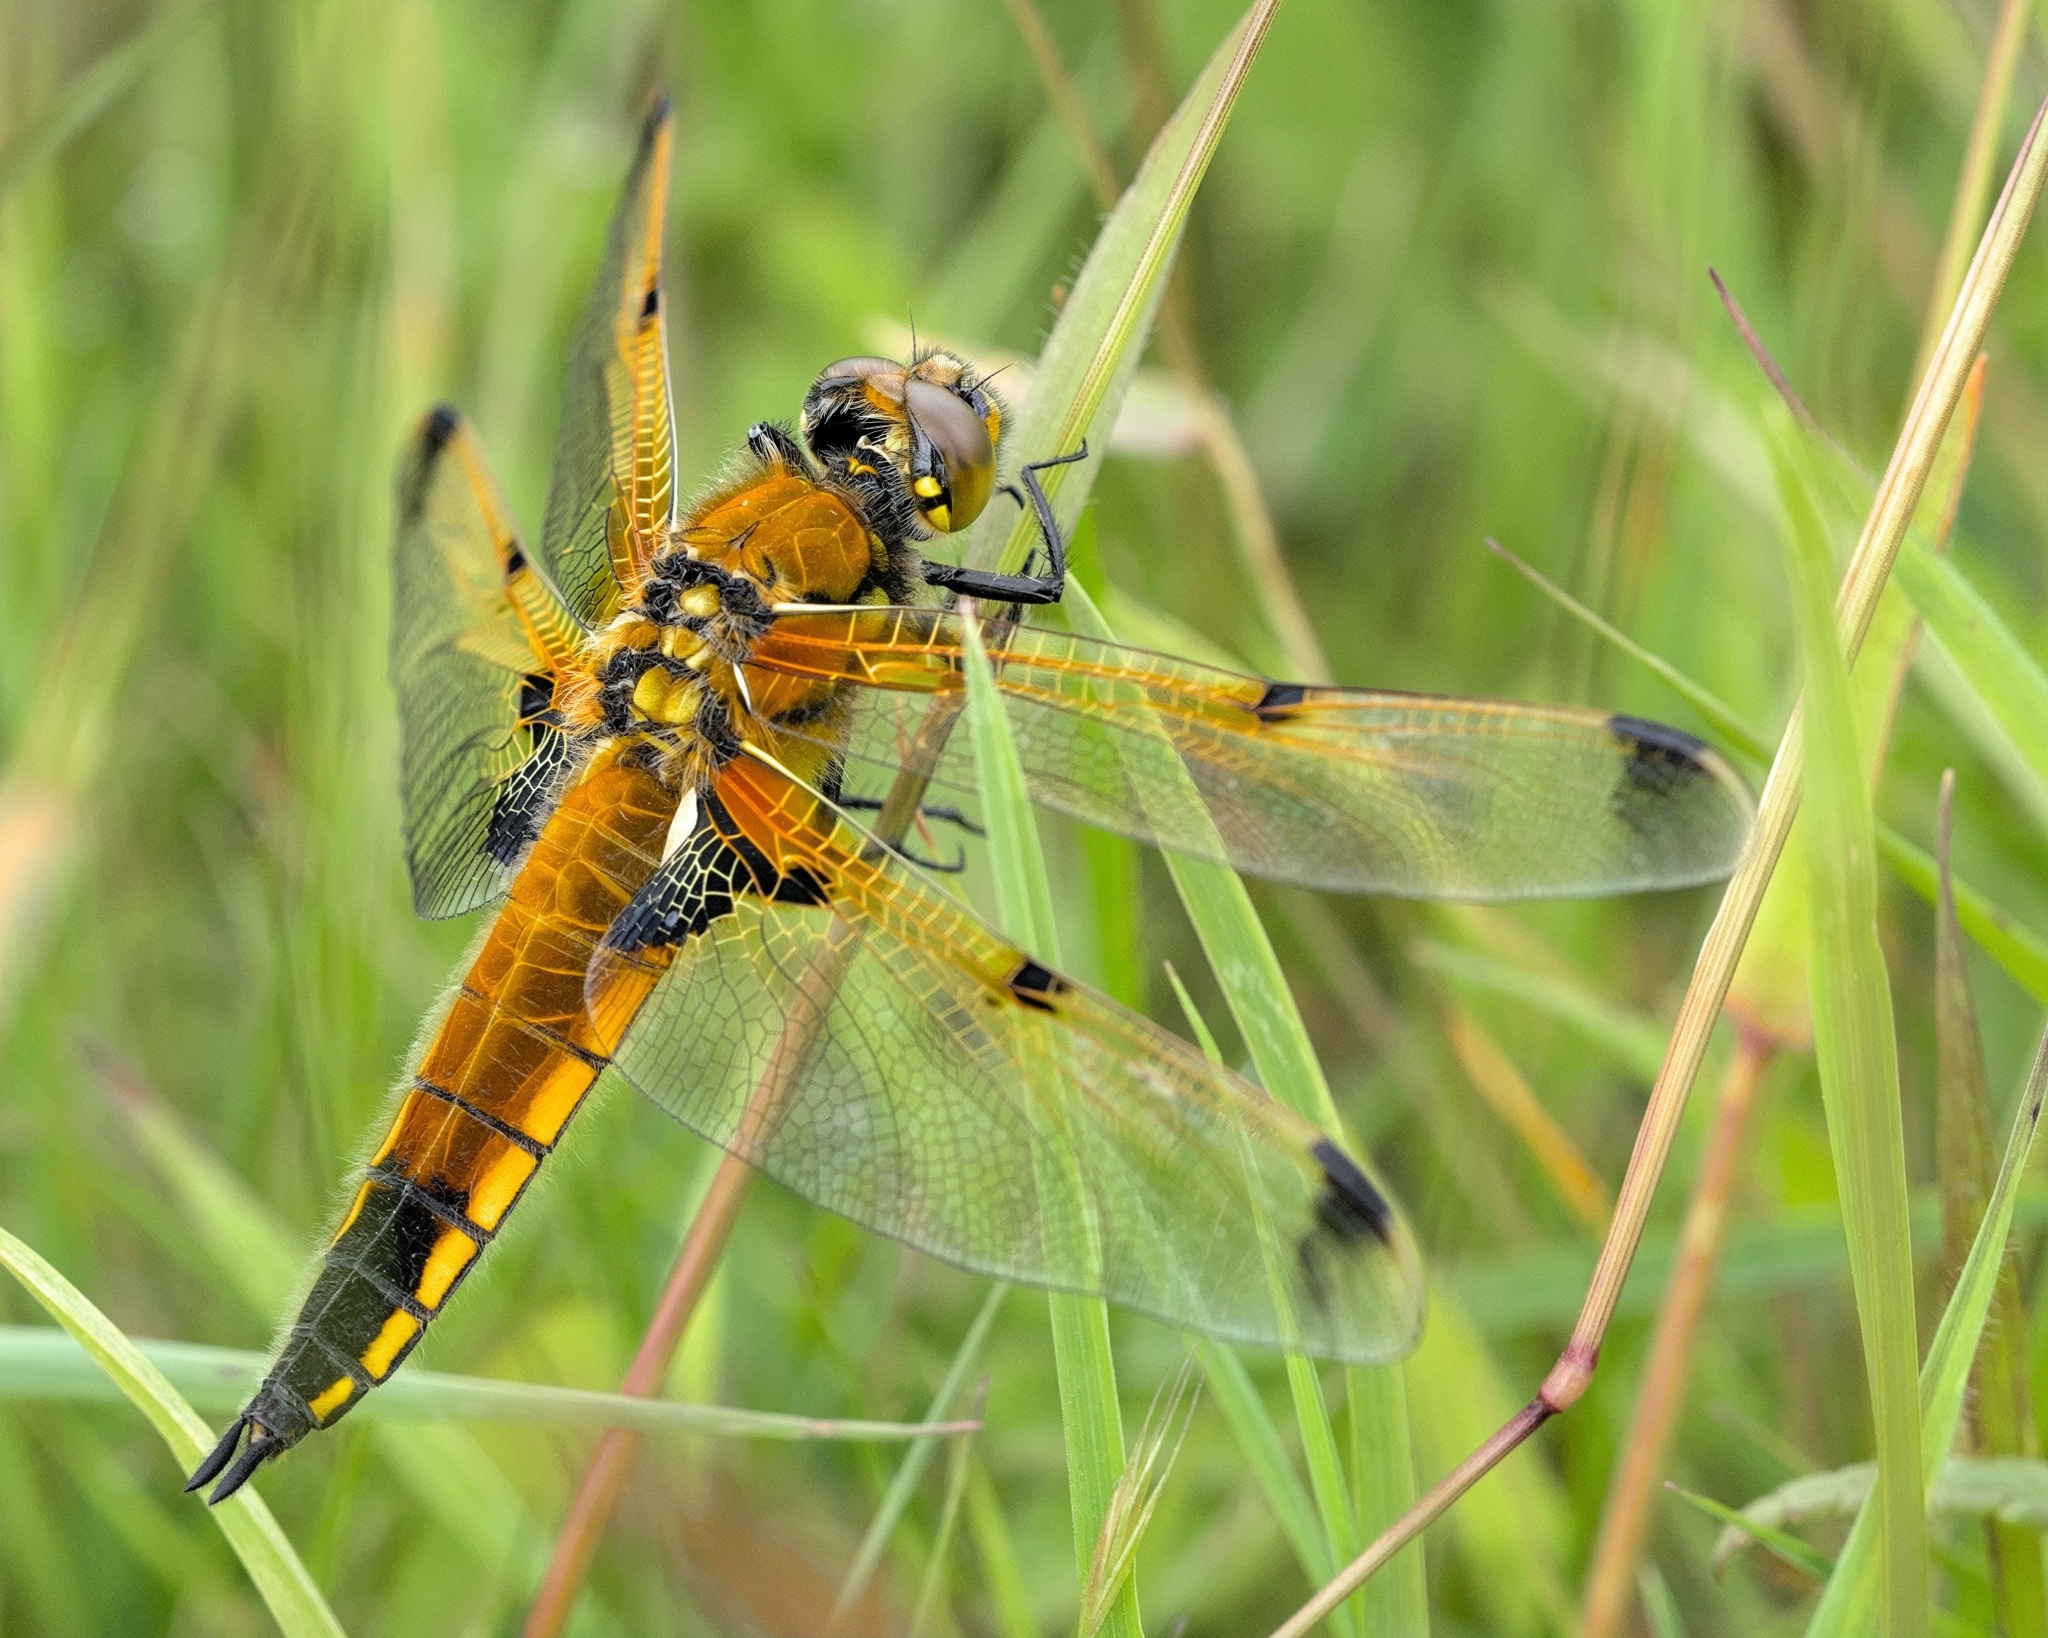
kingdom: Animalia
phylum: Arthropoda
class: Insecta
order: Odonata
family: Libellulidae
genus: Libellula
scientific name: Libellula quadrimaculata
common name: Four-spotted chaser
